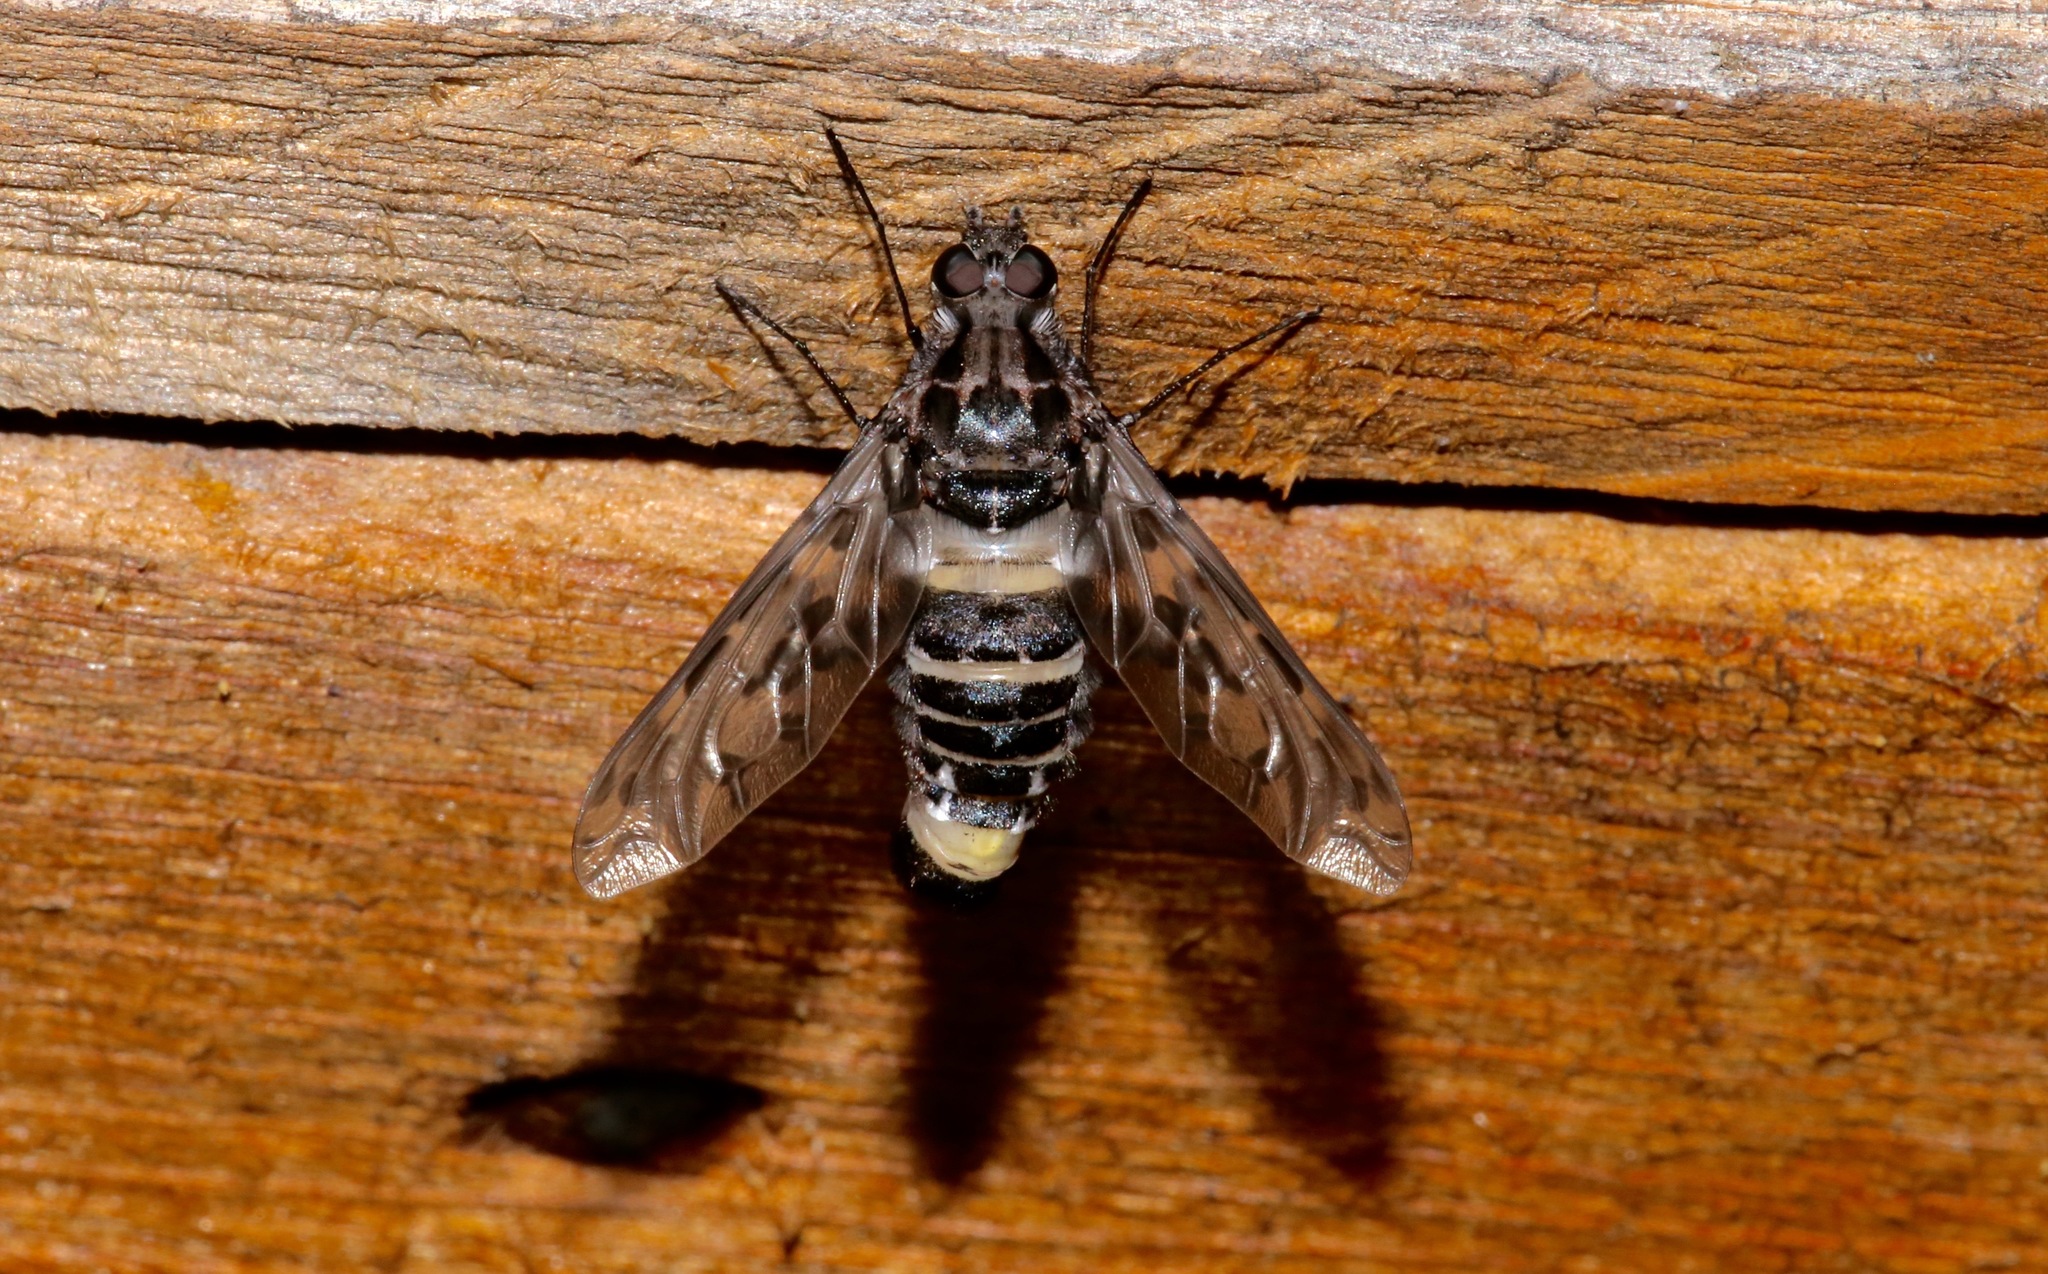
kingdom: Animalia
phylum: Arthropoda
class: Insecta
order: Diptera
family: Bombyliidae
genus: Xenox
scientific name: Xenox tigrinus
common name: Tiger bee fly
